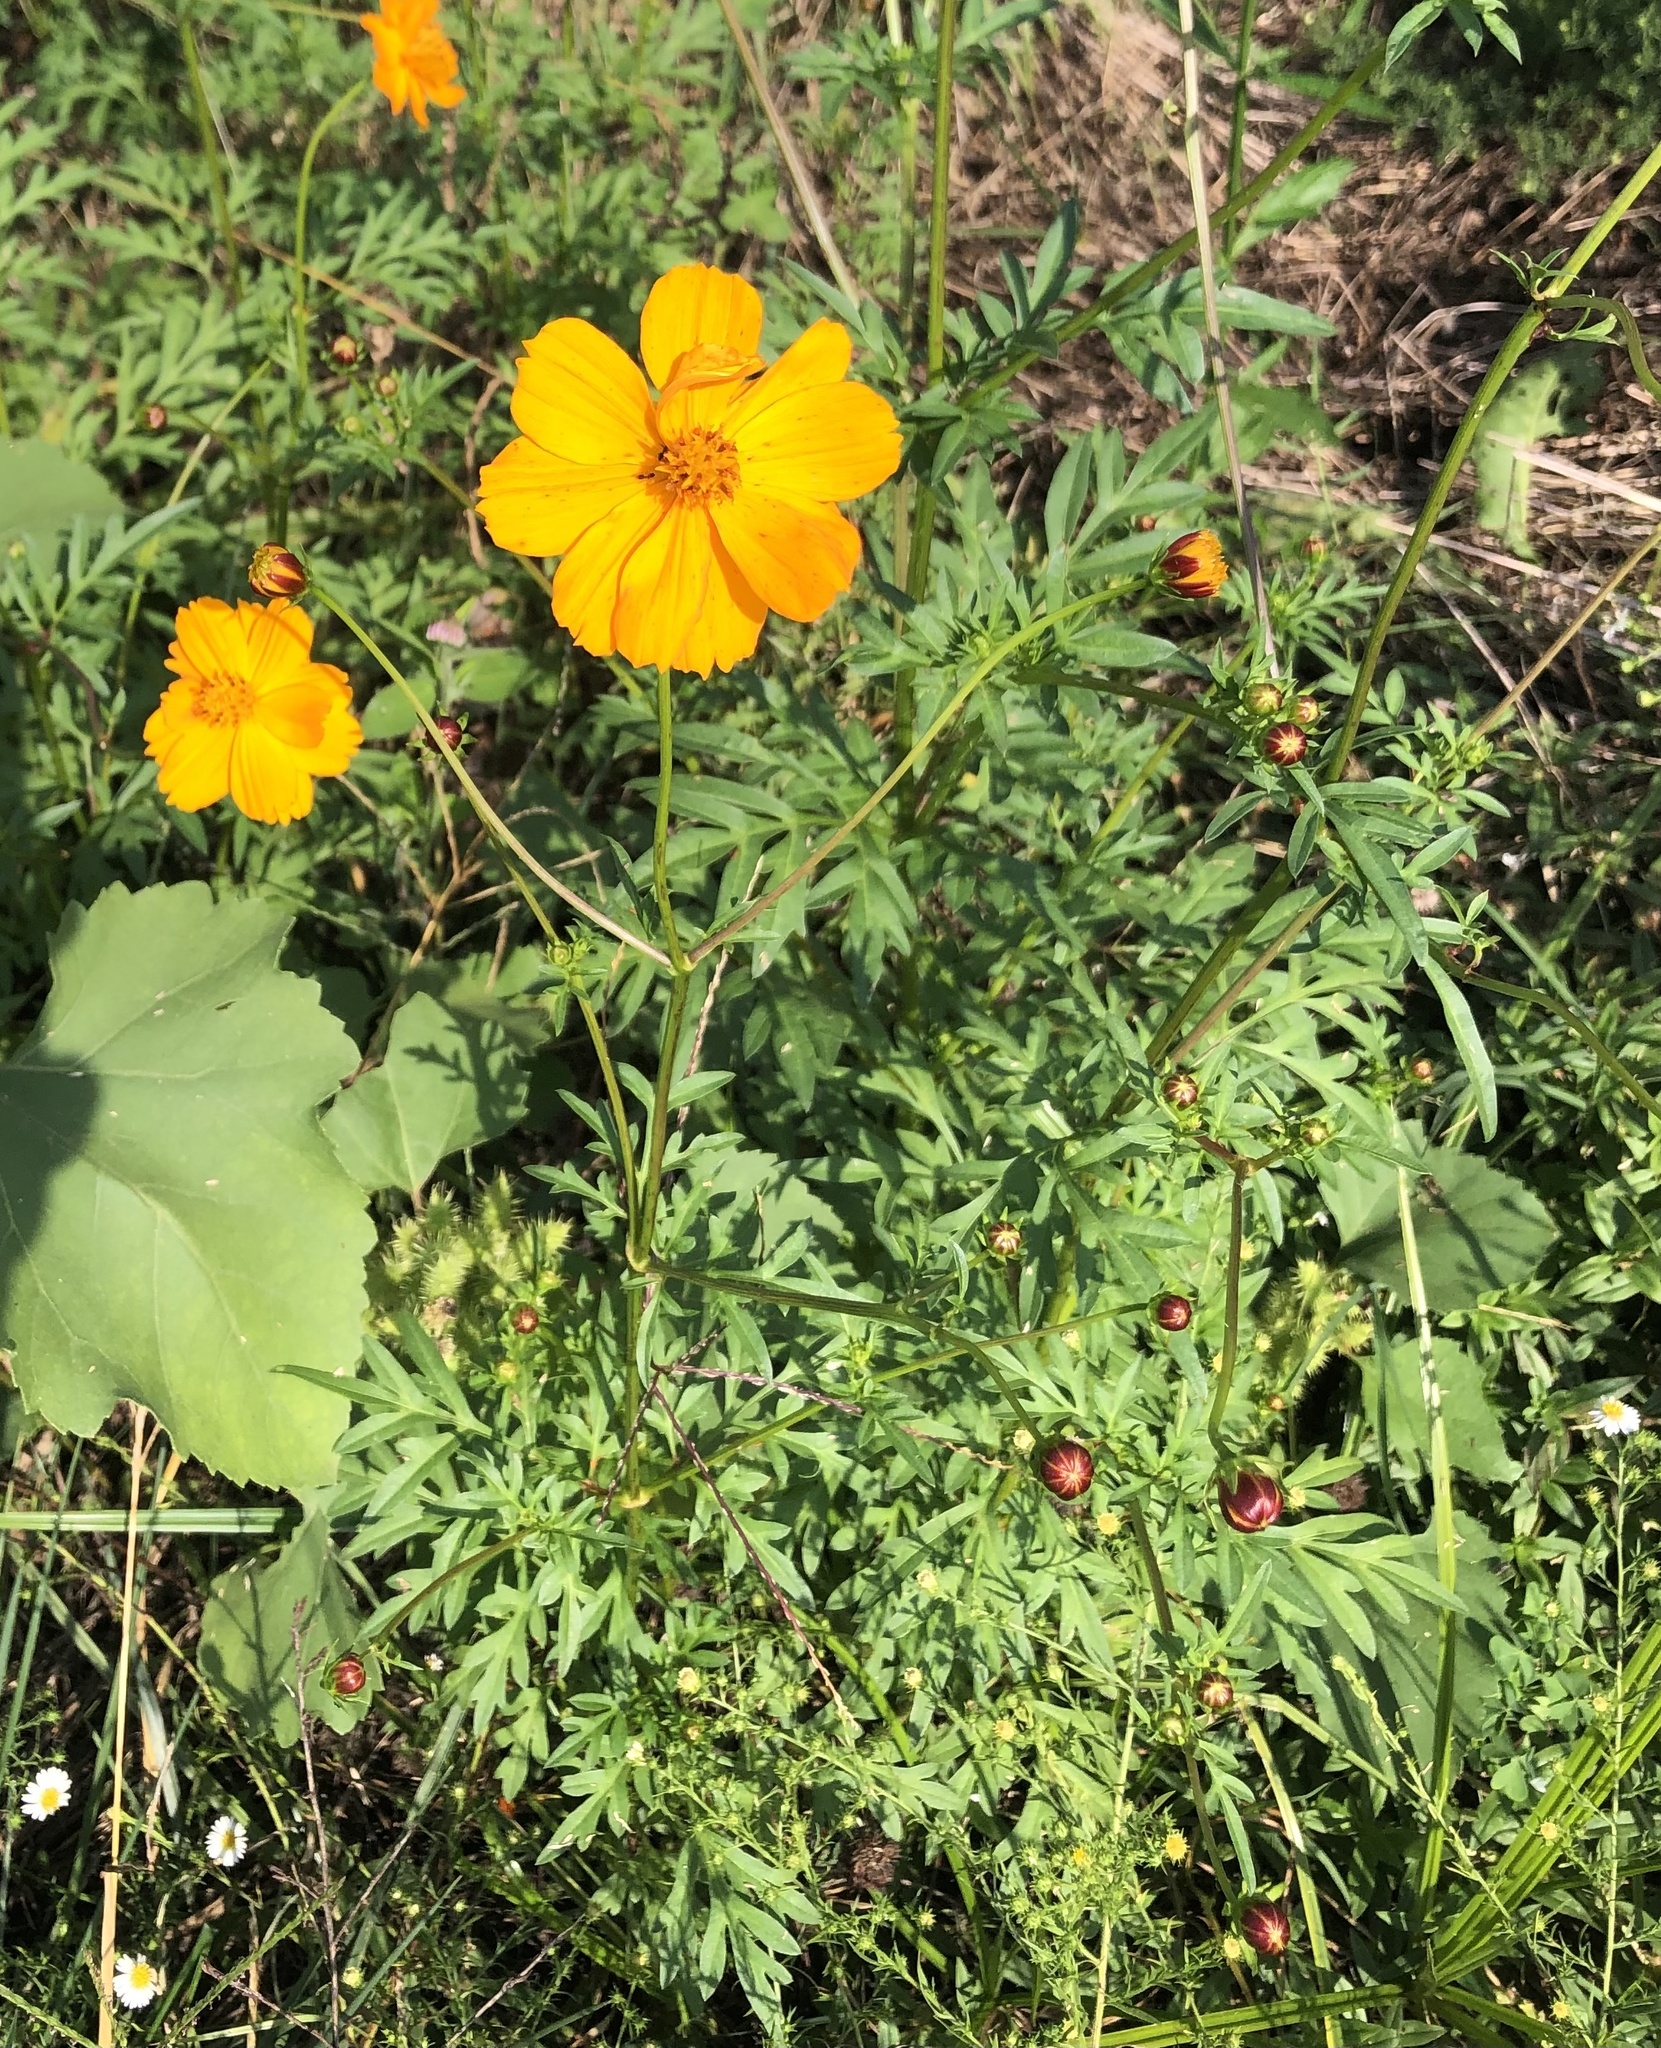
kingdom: Plantae
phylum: Tracheophyta
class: Magnoliopsida
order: Asterales
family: Asteraceae
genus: Cosmos
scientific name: Cosmos sulphureus
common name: Sulphur cosmos
